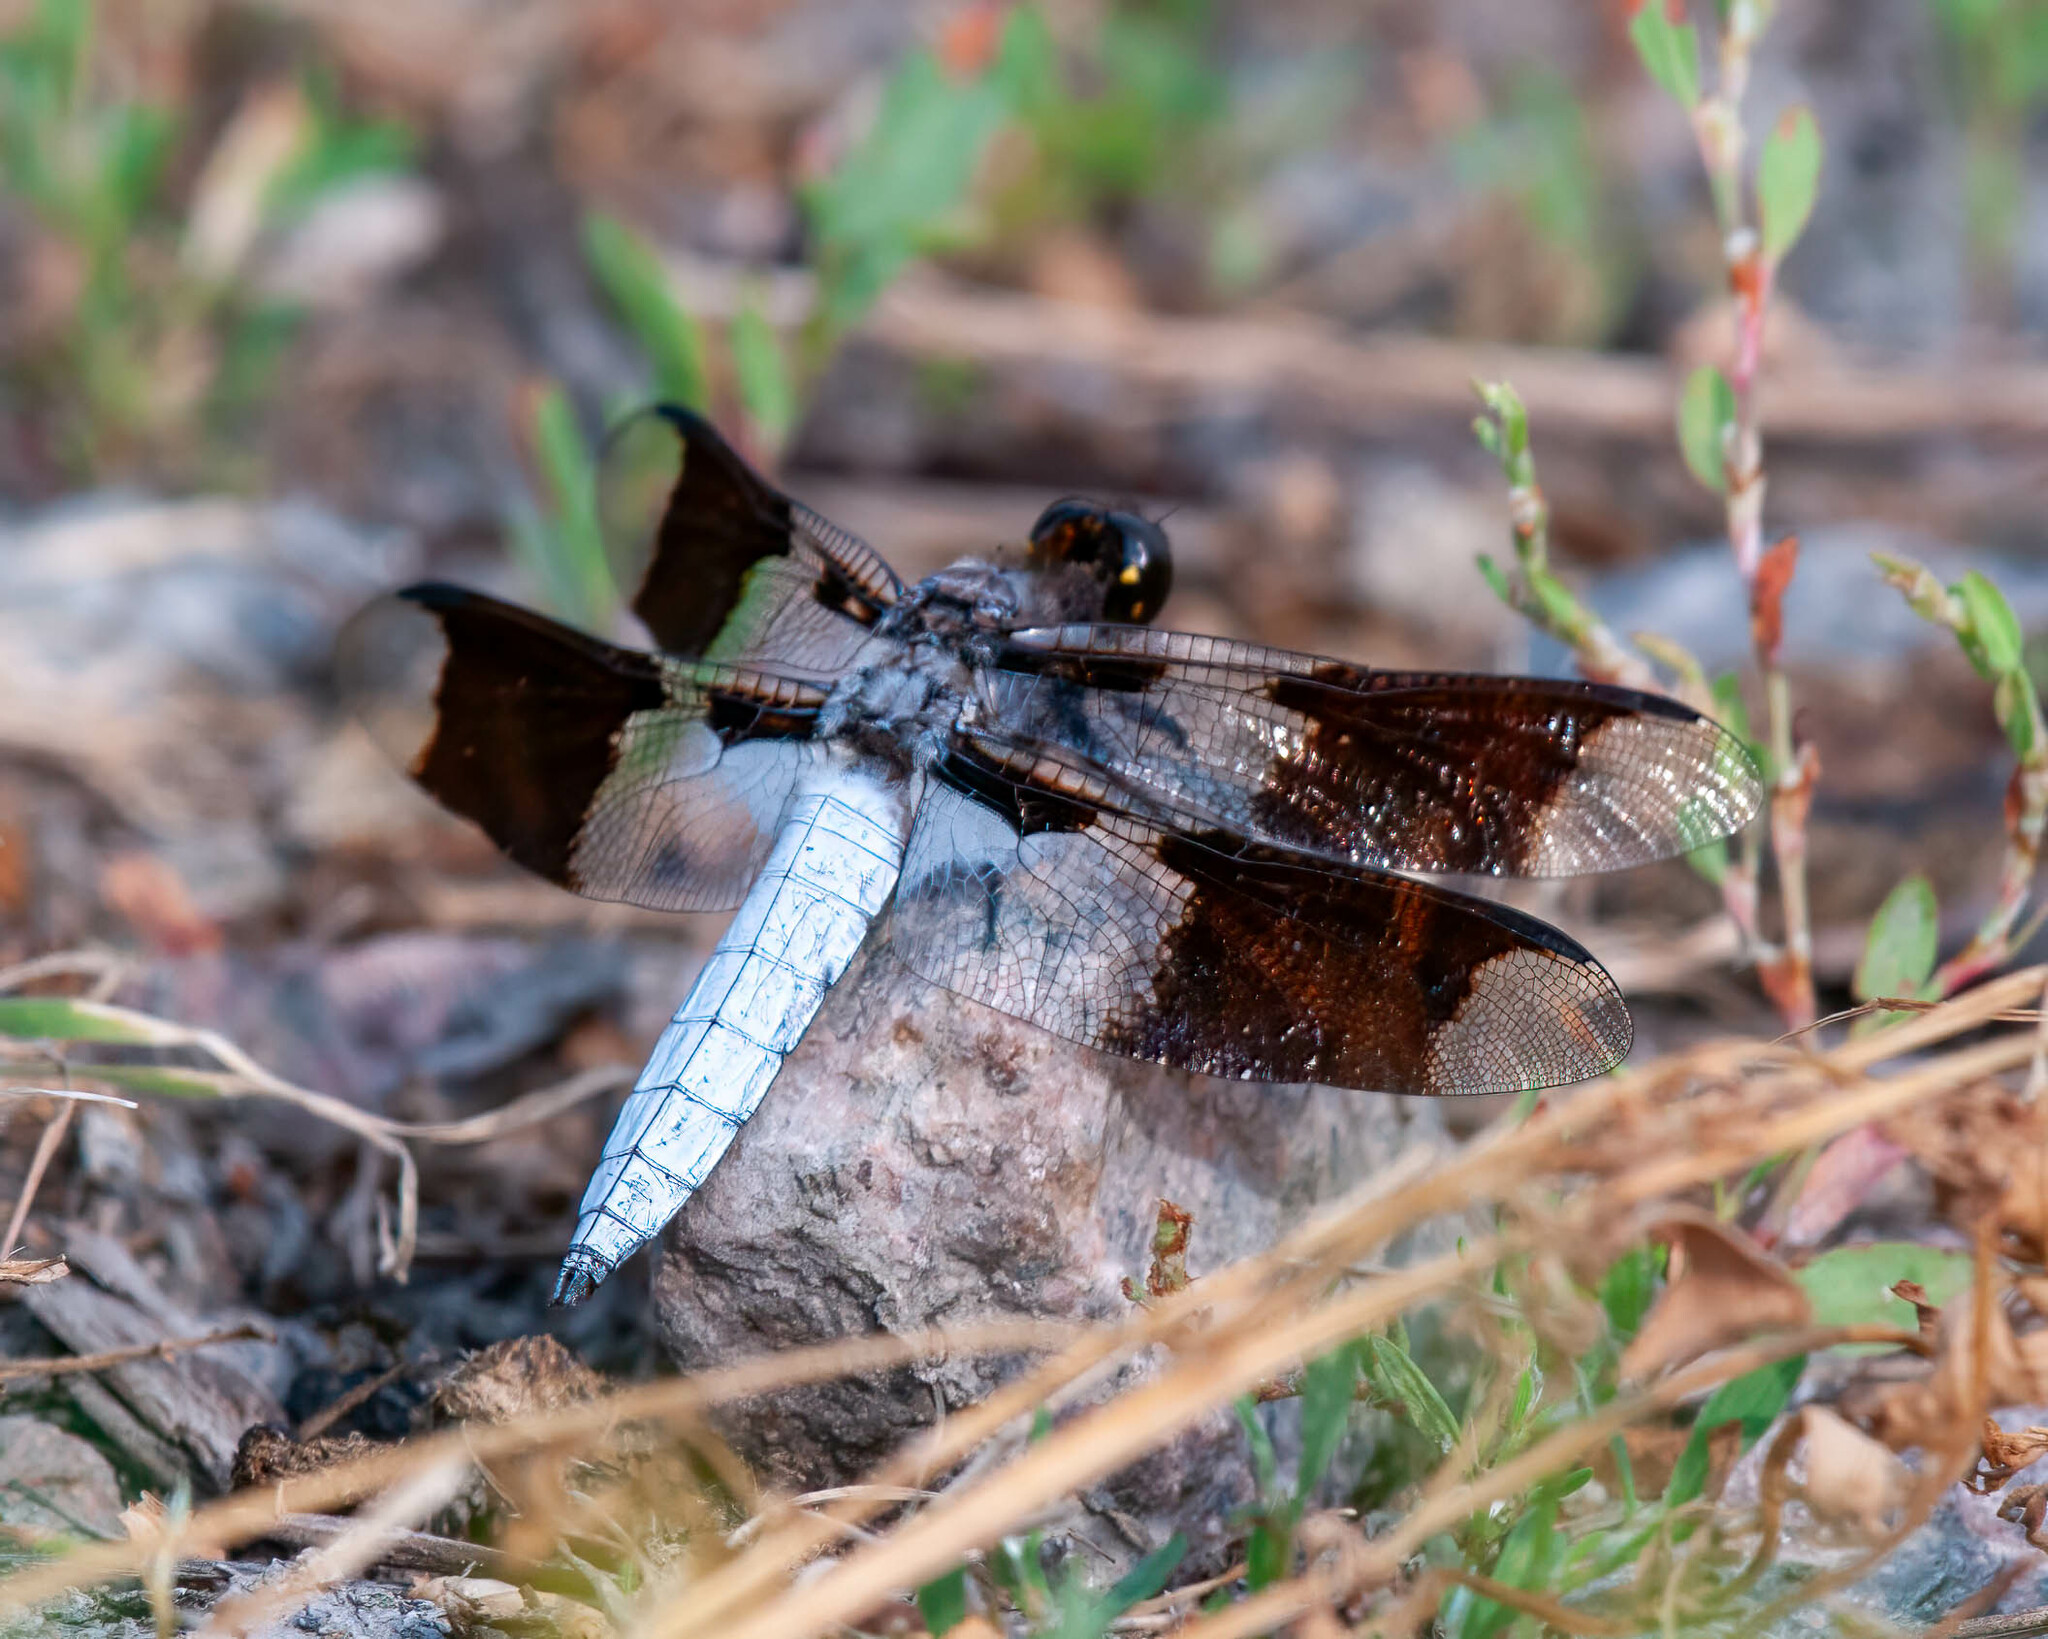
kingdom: Animalia
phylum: Arthropoda
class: Insecta
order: Odonata
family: Libellulidae
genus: Plathemis
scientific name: Plathemis lydia
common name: Common whitetail
